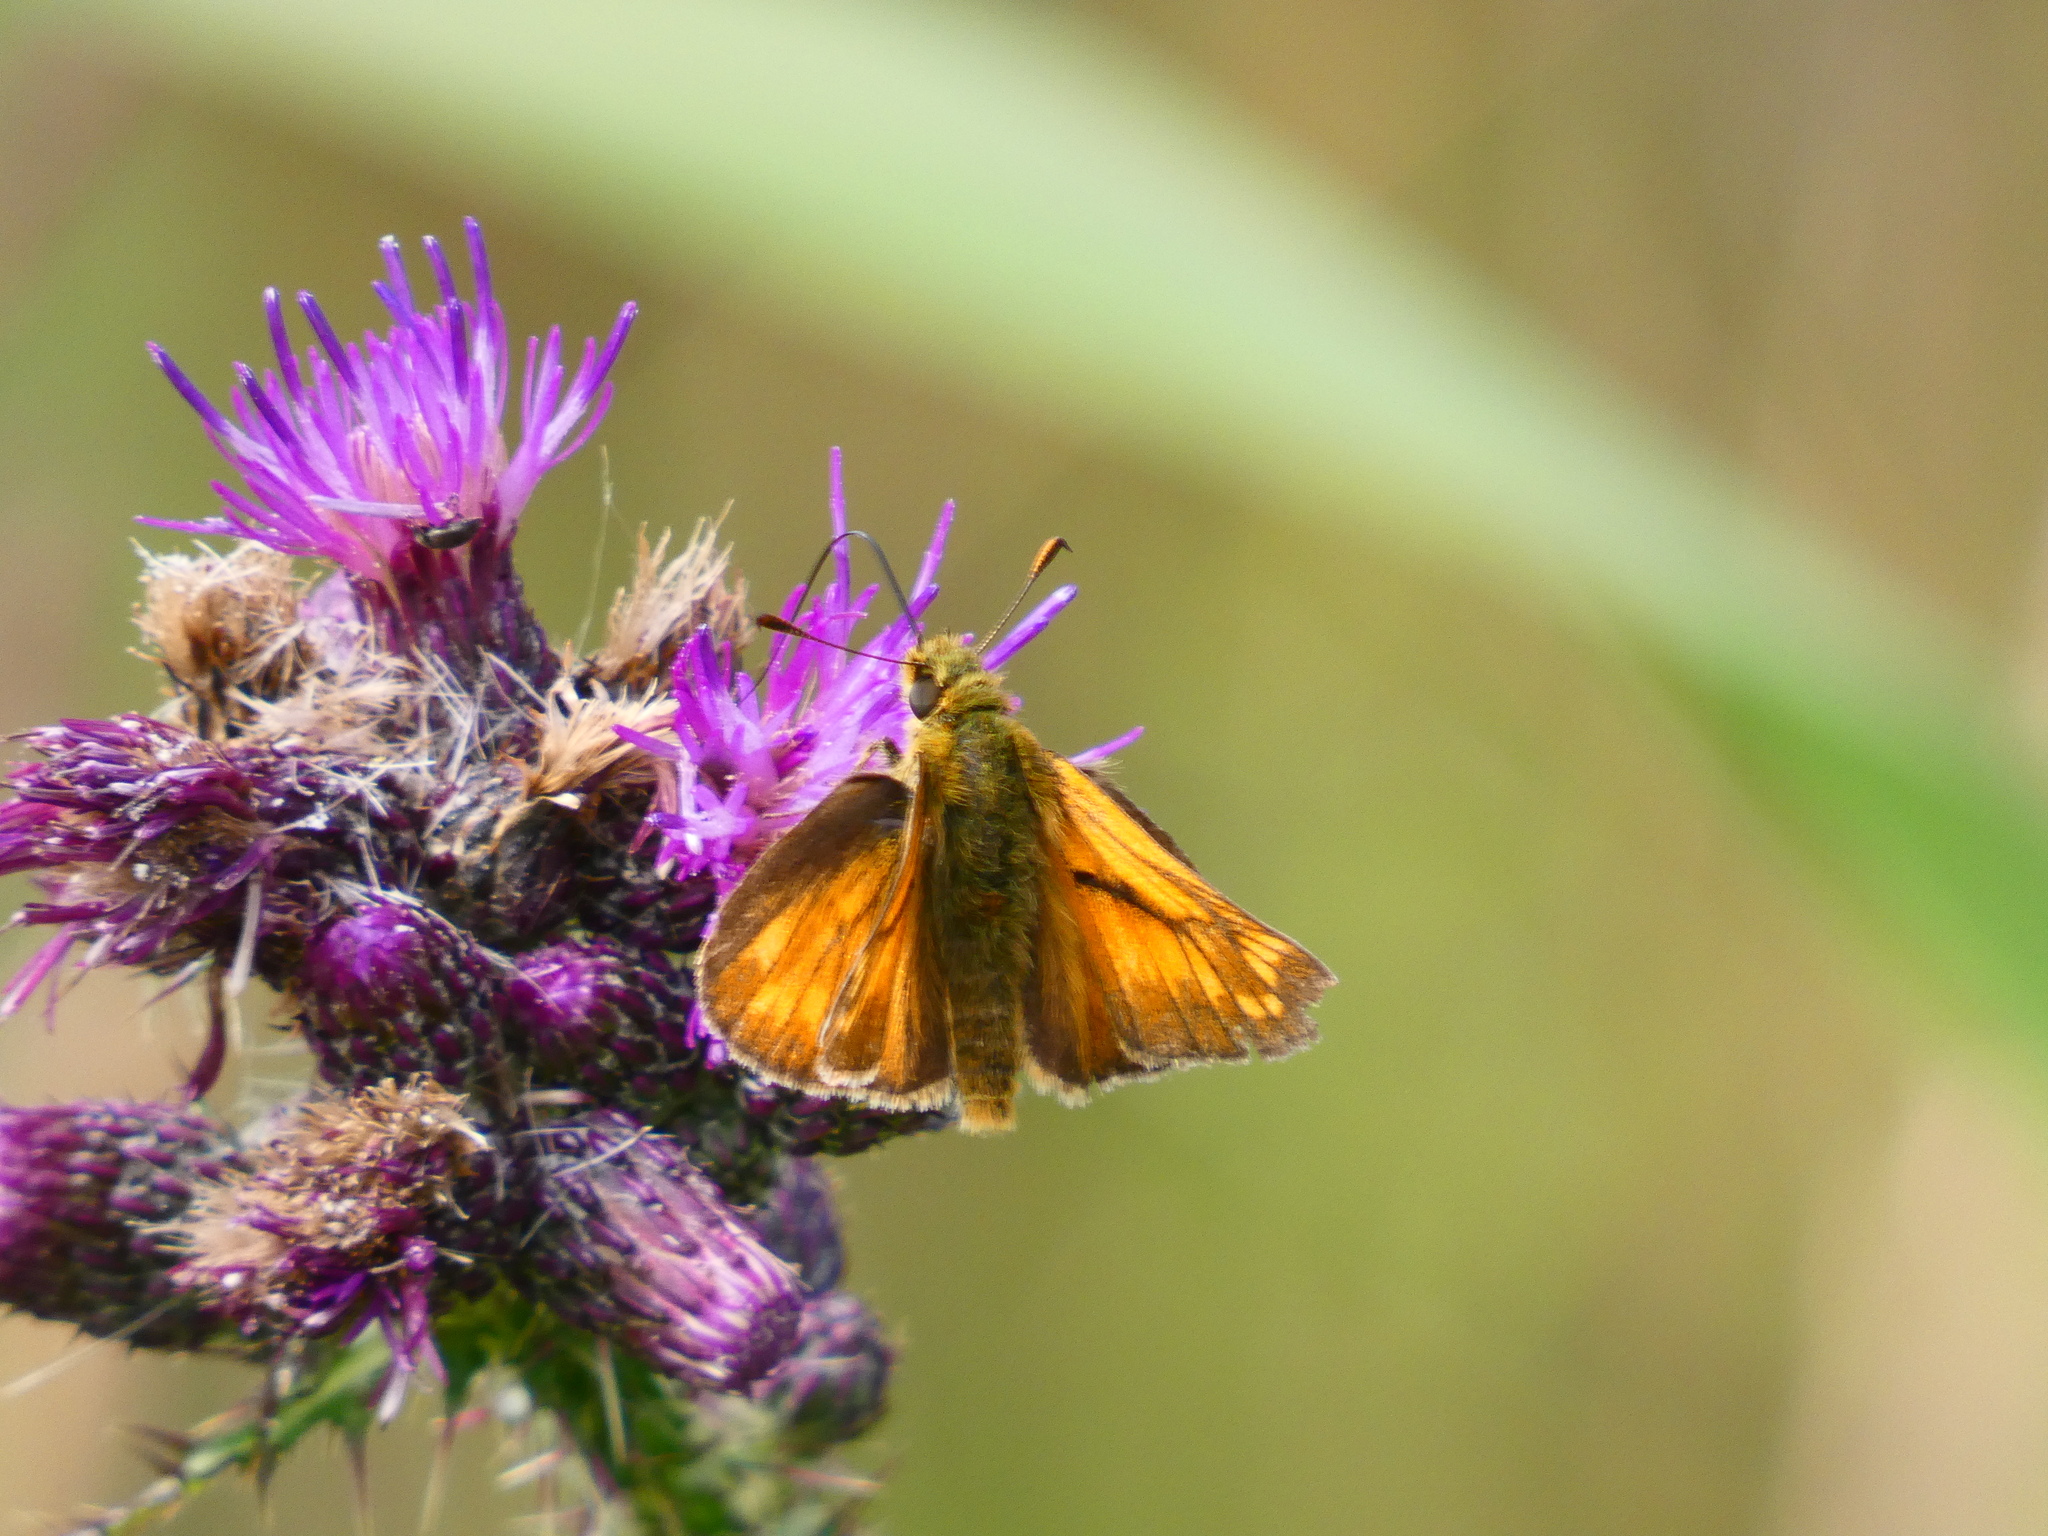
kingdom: Animalia
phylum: Arthropoda
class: Insecta
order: Lepidoptera
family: Hesperiidae
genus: Ochlodes
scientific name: Ochlodes venata
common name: Large skipper
